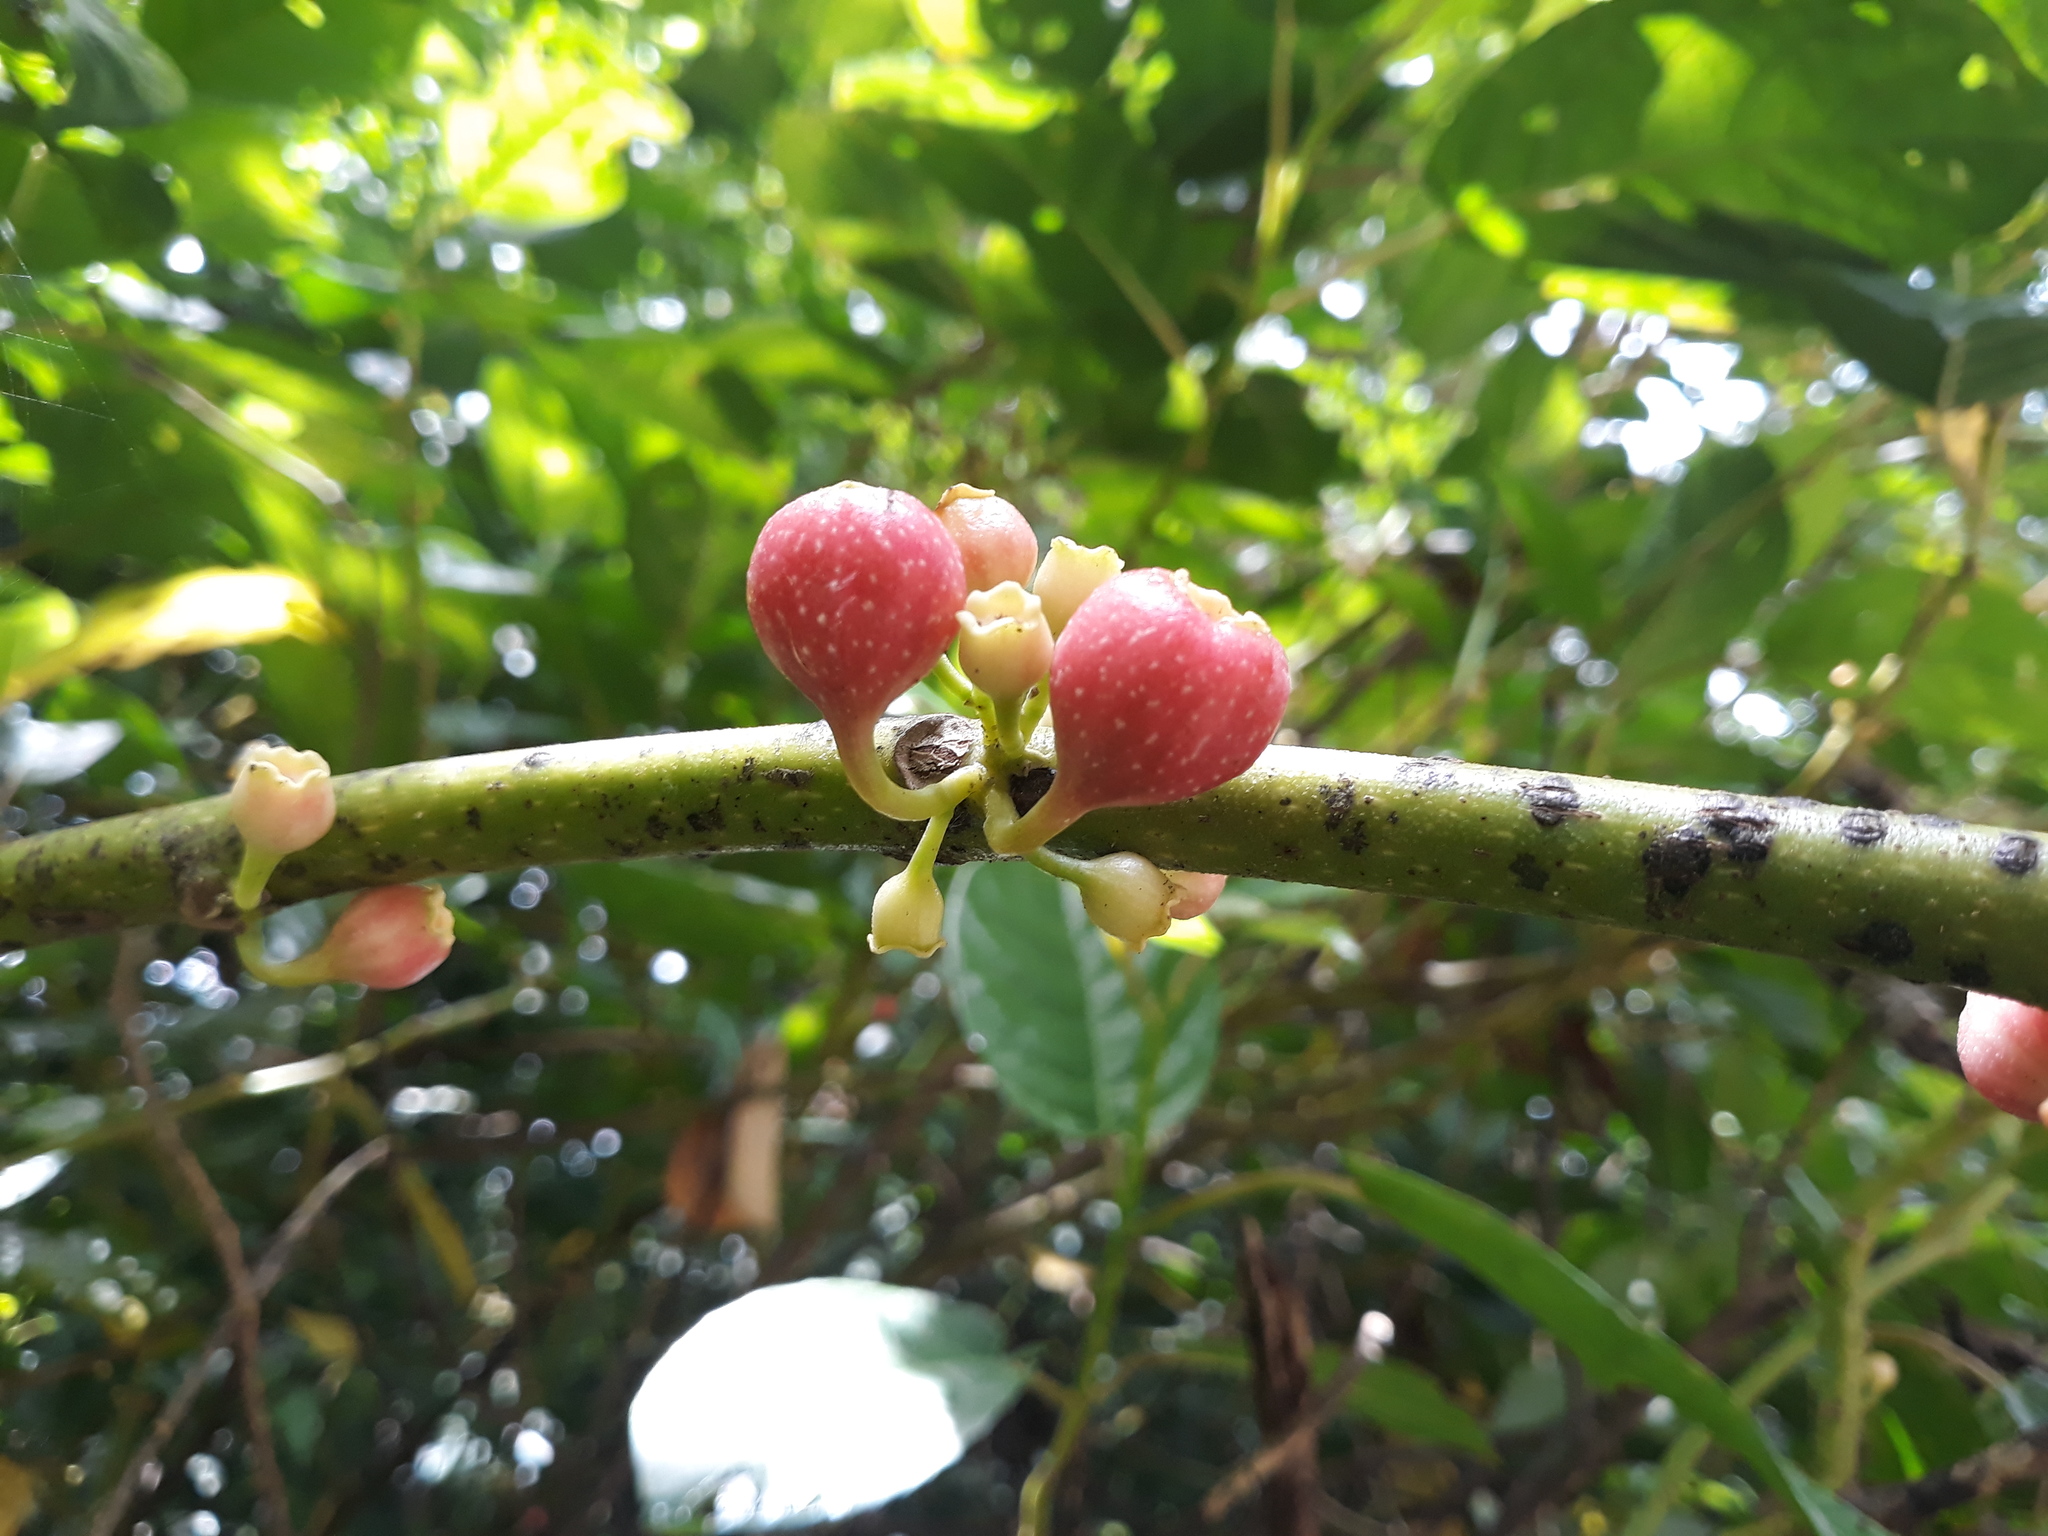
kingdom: Plantae
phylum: Tracheophyta
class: Magnoliopsida
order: Laurales
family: Siparunaceae
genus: Siparuna
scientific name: Siparuna thecaphora
